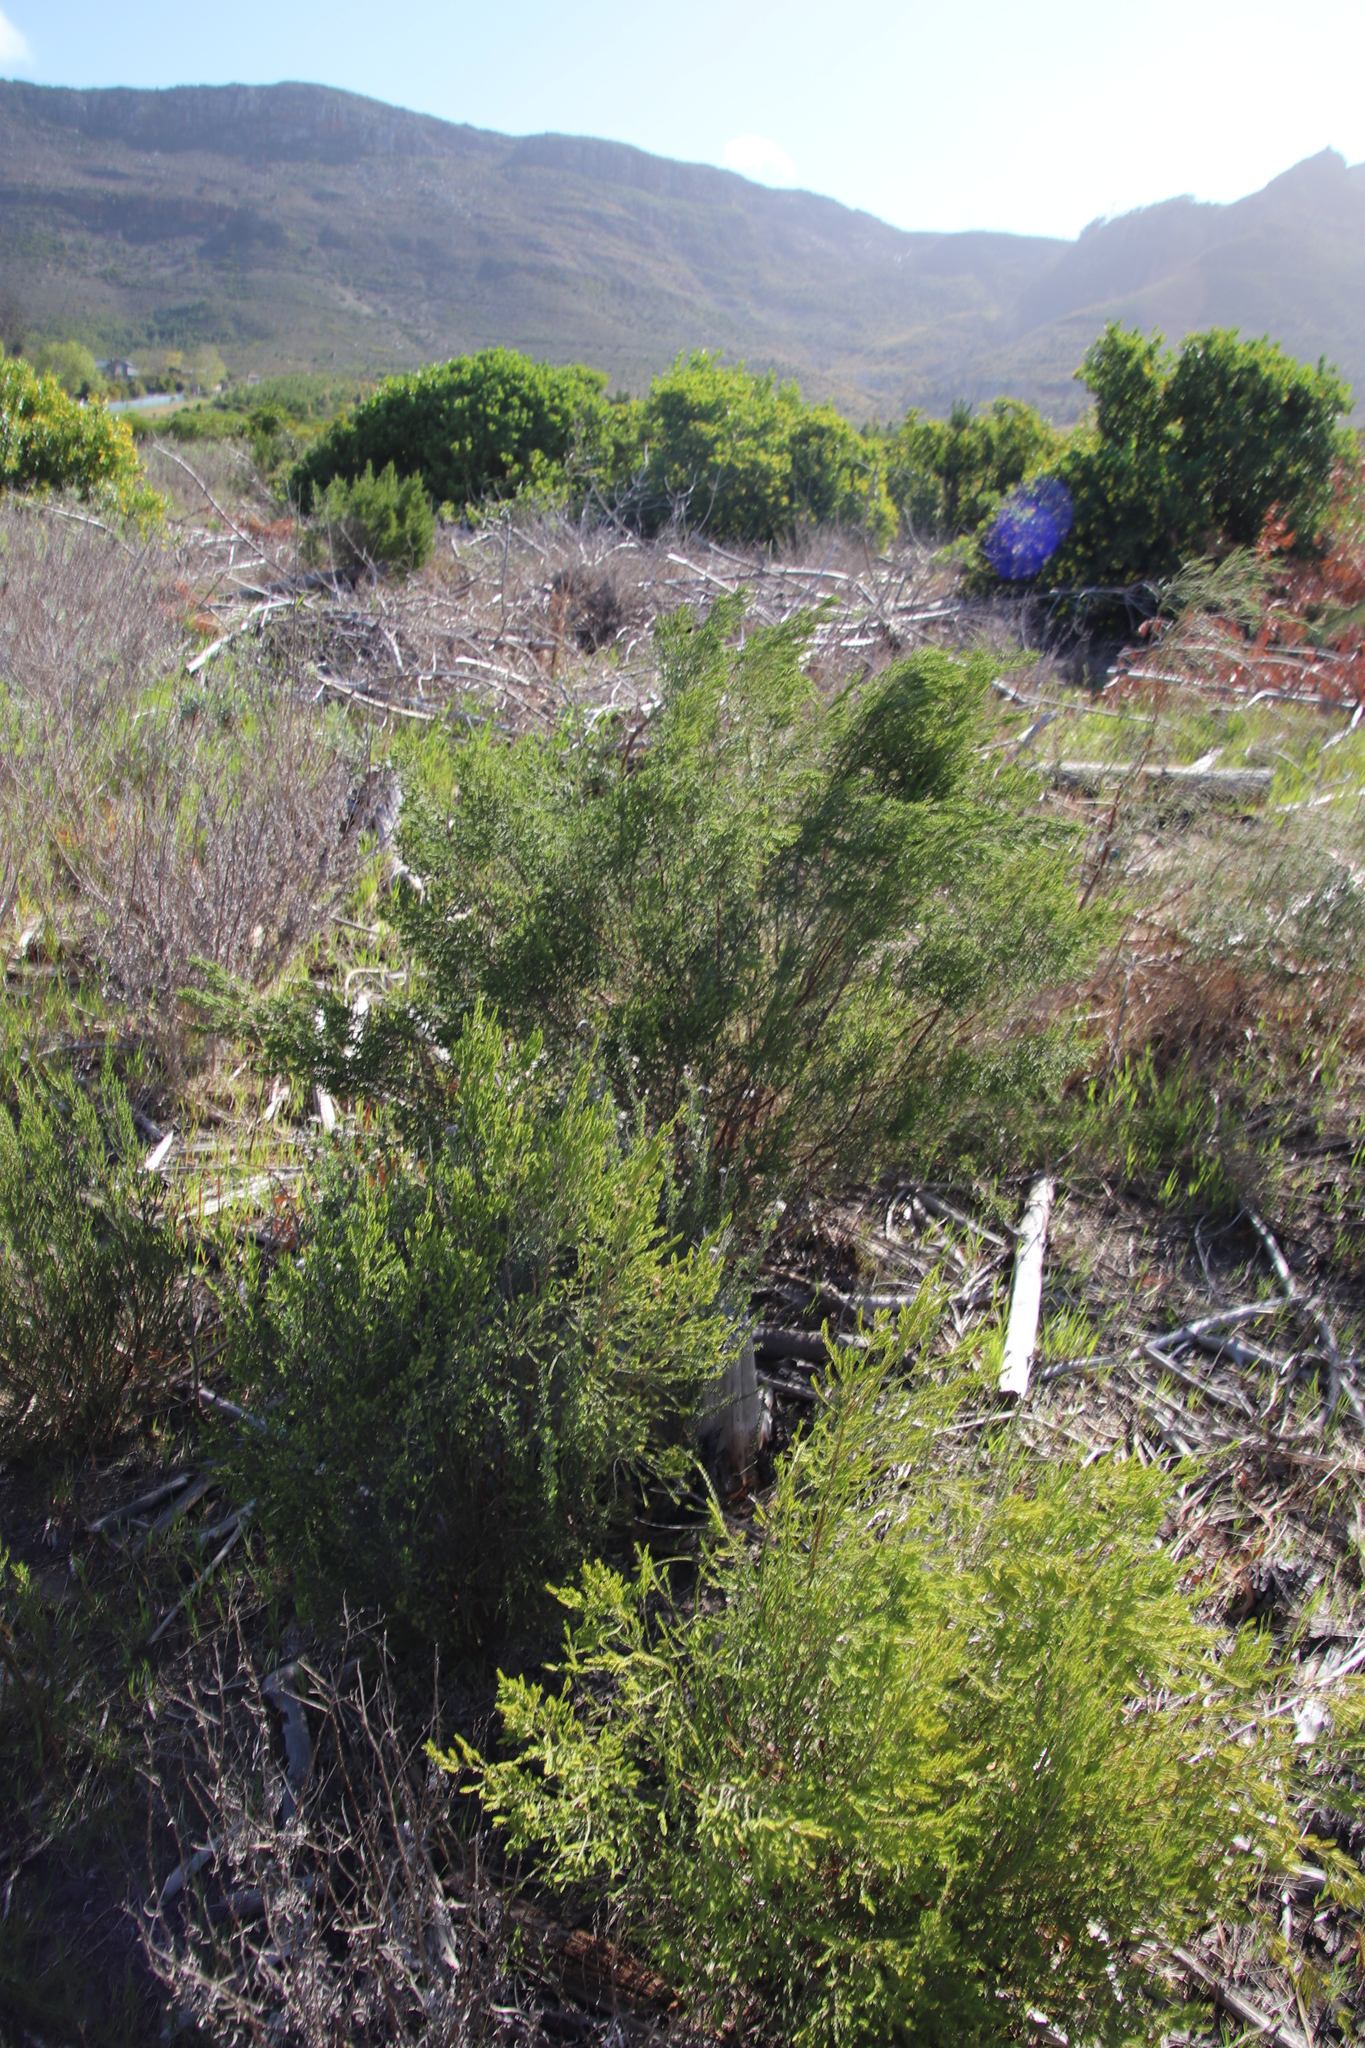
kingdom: Plantae
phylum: Tracheophyta
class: Magnoliopsida
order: Malvales
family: Thymelaeaceae
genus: Passerina
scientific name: Passerina corymbosa
